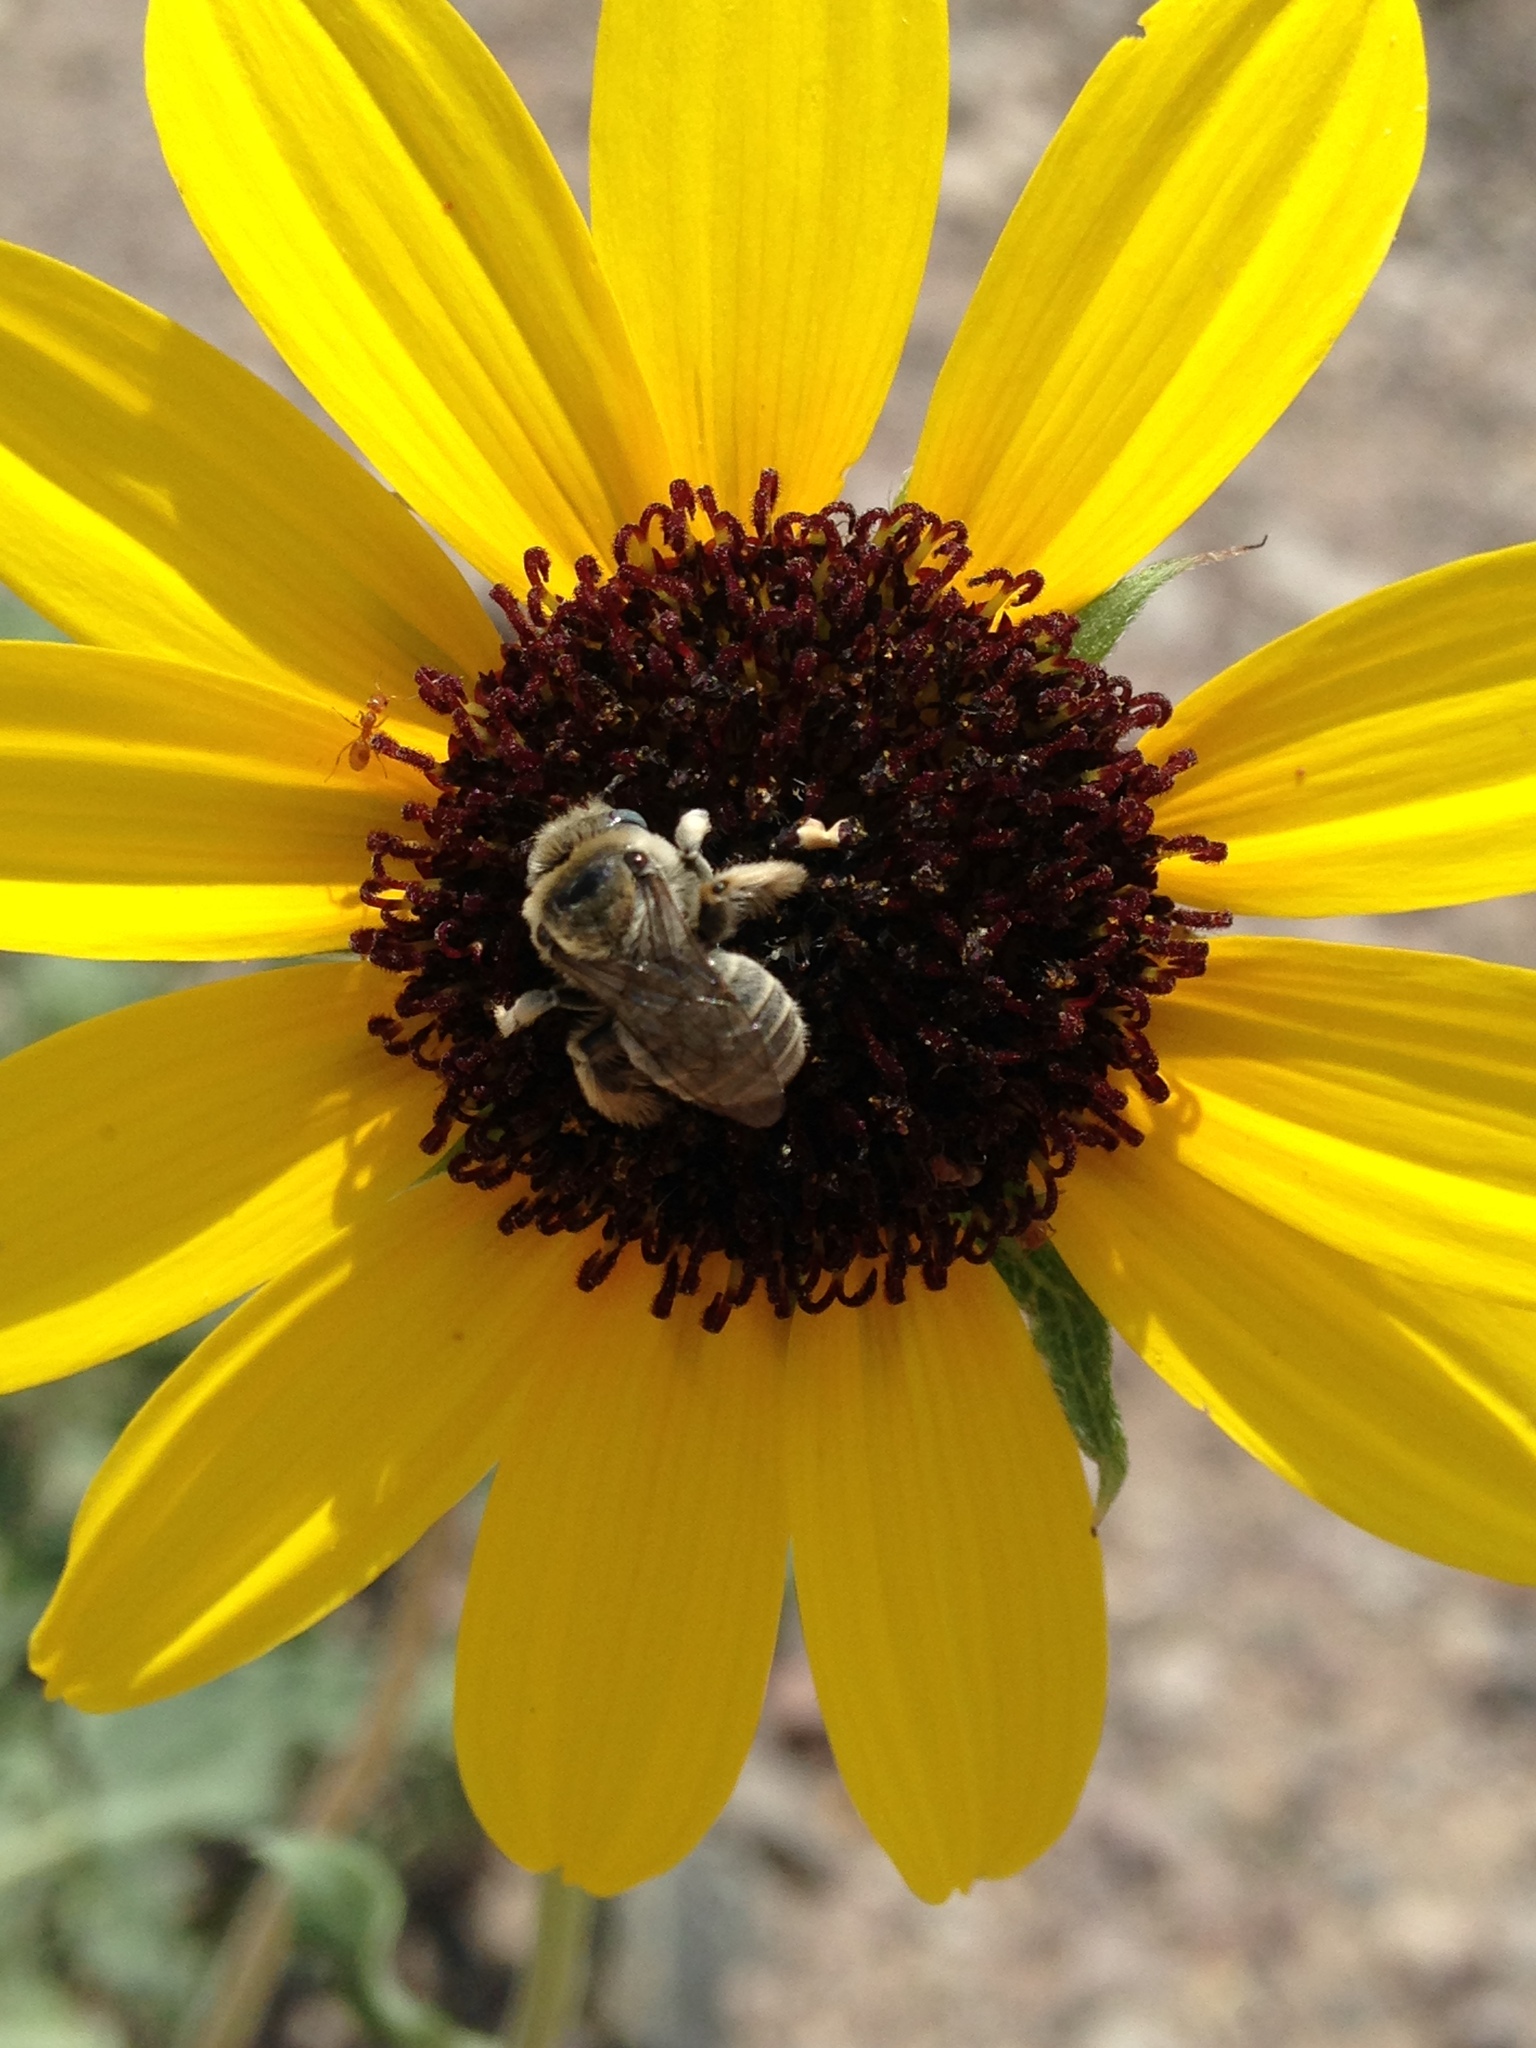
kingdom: Animalia
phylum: Arthropoda
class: Insecta
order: Hymenoptera
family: Apidae
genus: Diadasia
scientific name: Diadasia enavata
